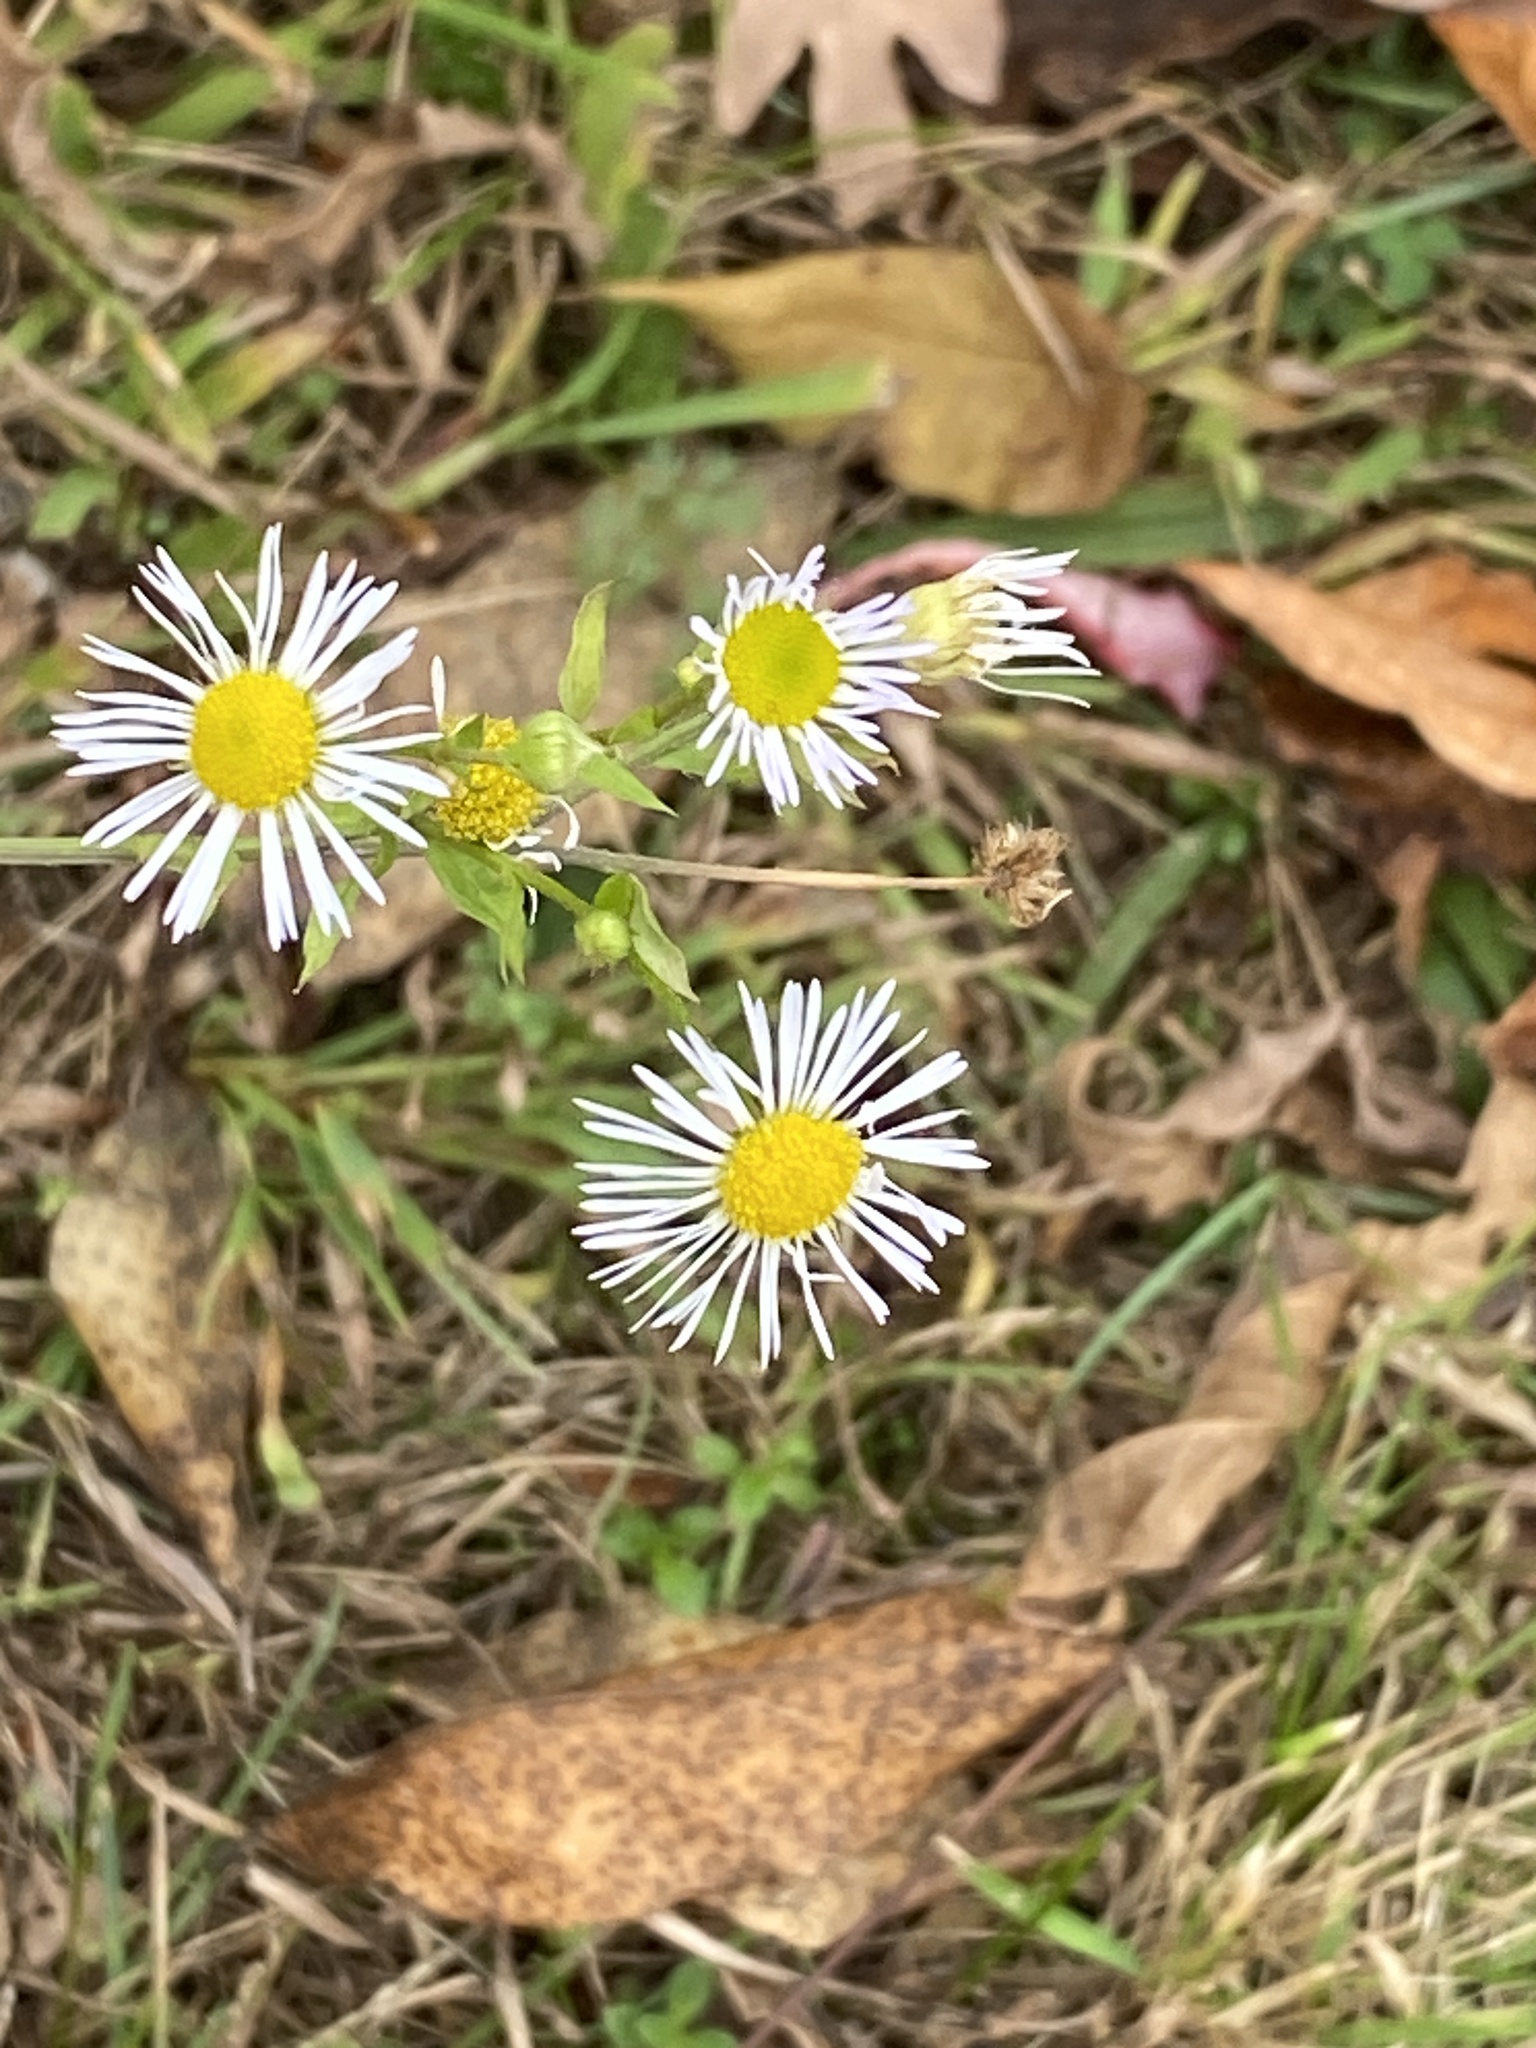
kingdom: Plantae
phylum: Tracheophyta
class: Magnoliopsida
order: Asterales
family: Asteraceae
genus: Erigeron
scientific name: Erigeron strigosus
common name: Common eastern fleabane
